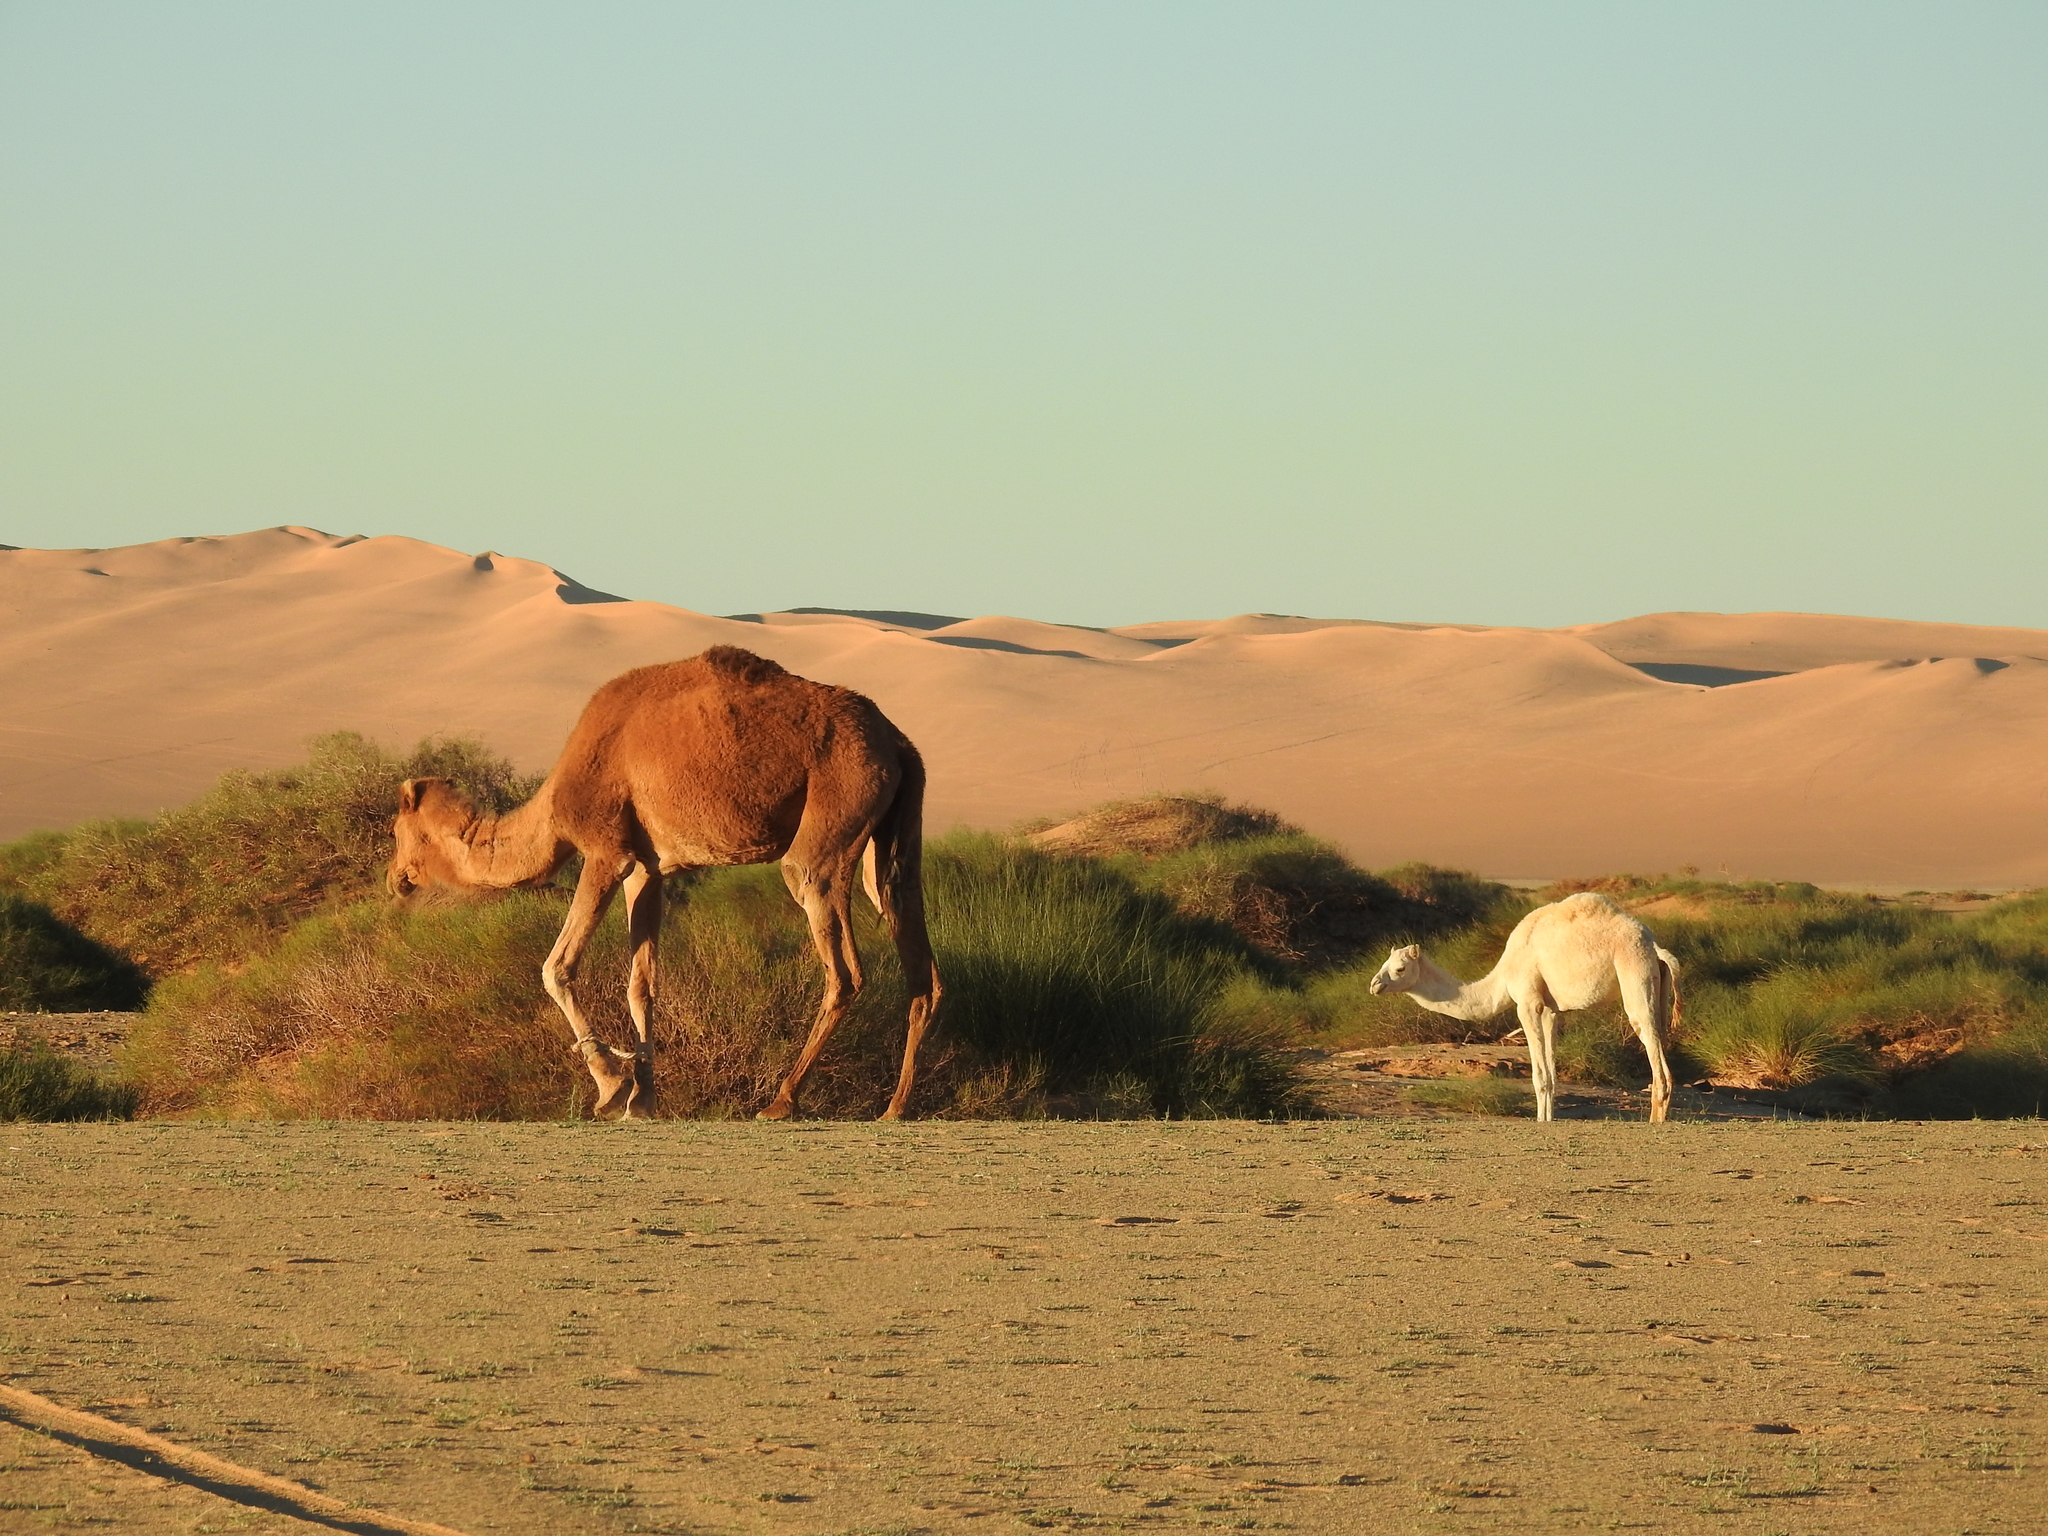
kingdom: Animalia
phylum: Chordata
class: Mammalia
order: Artiodactyla
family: Camelidae
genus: Camelus
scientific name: Camelus dromedarius
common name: One-humped camel
